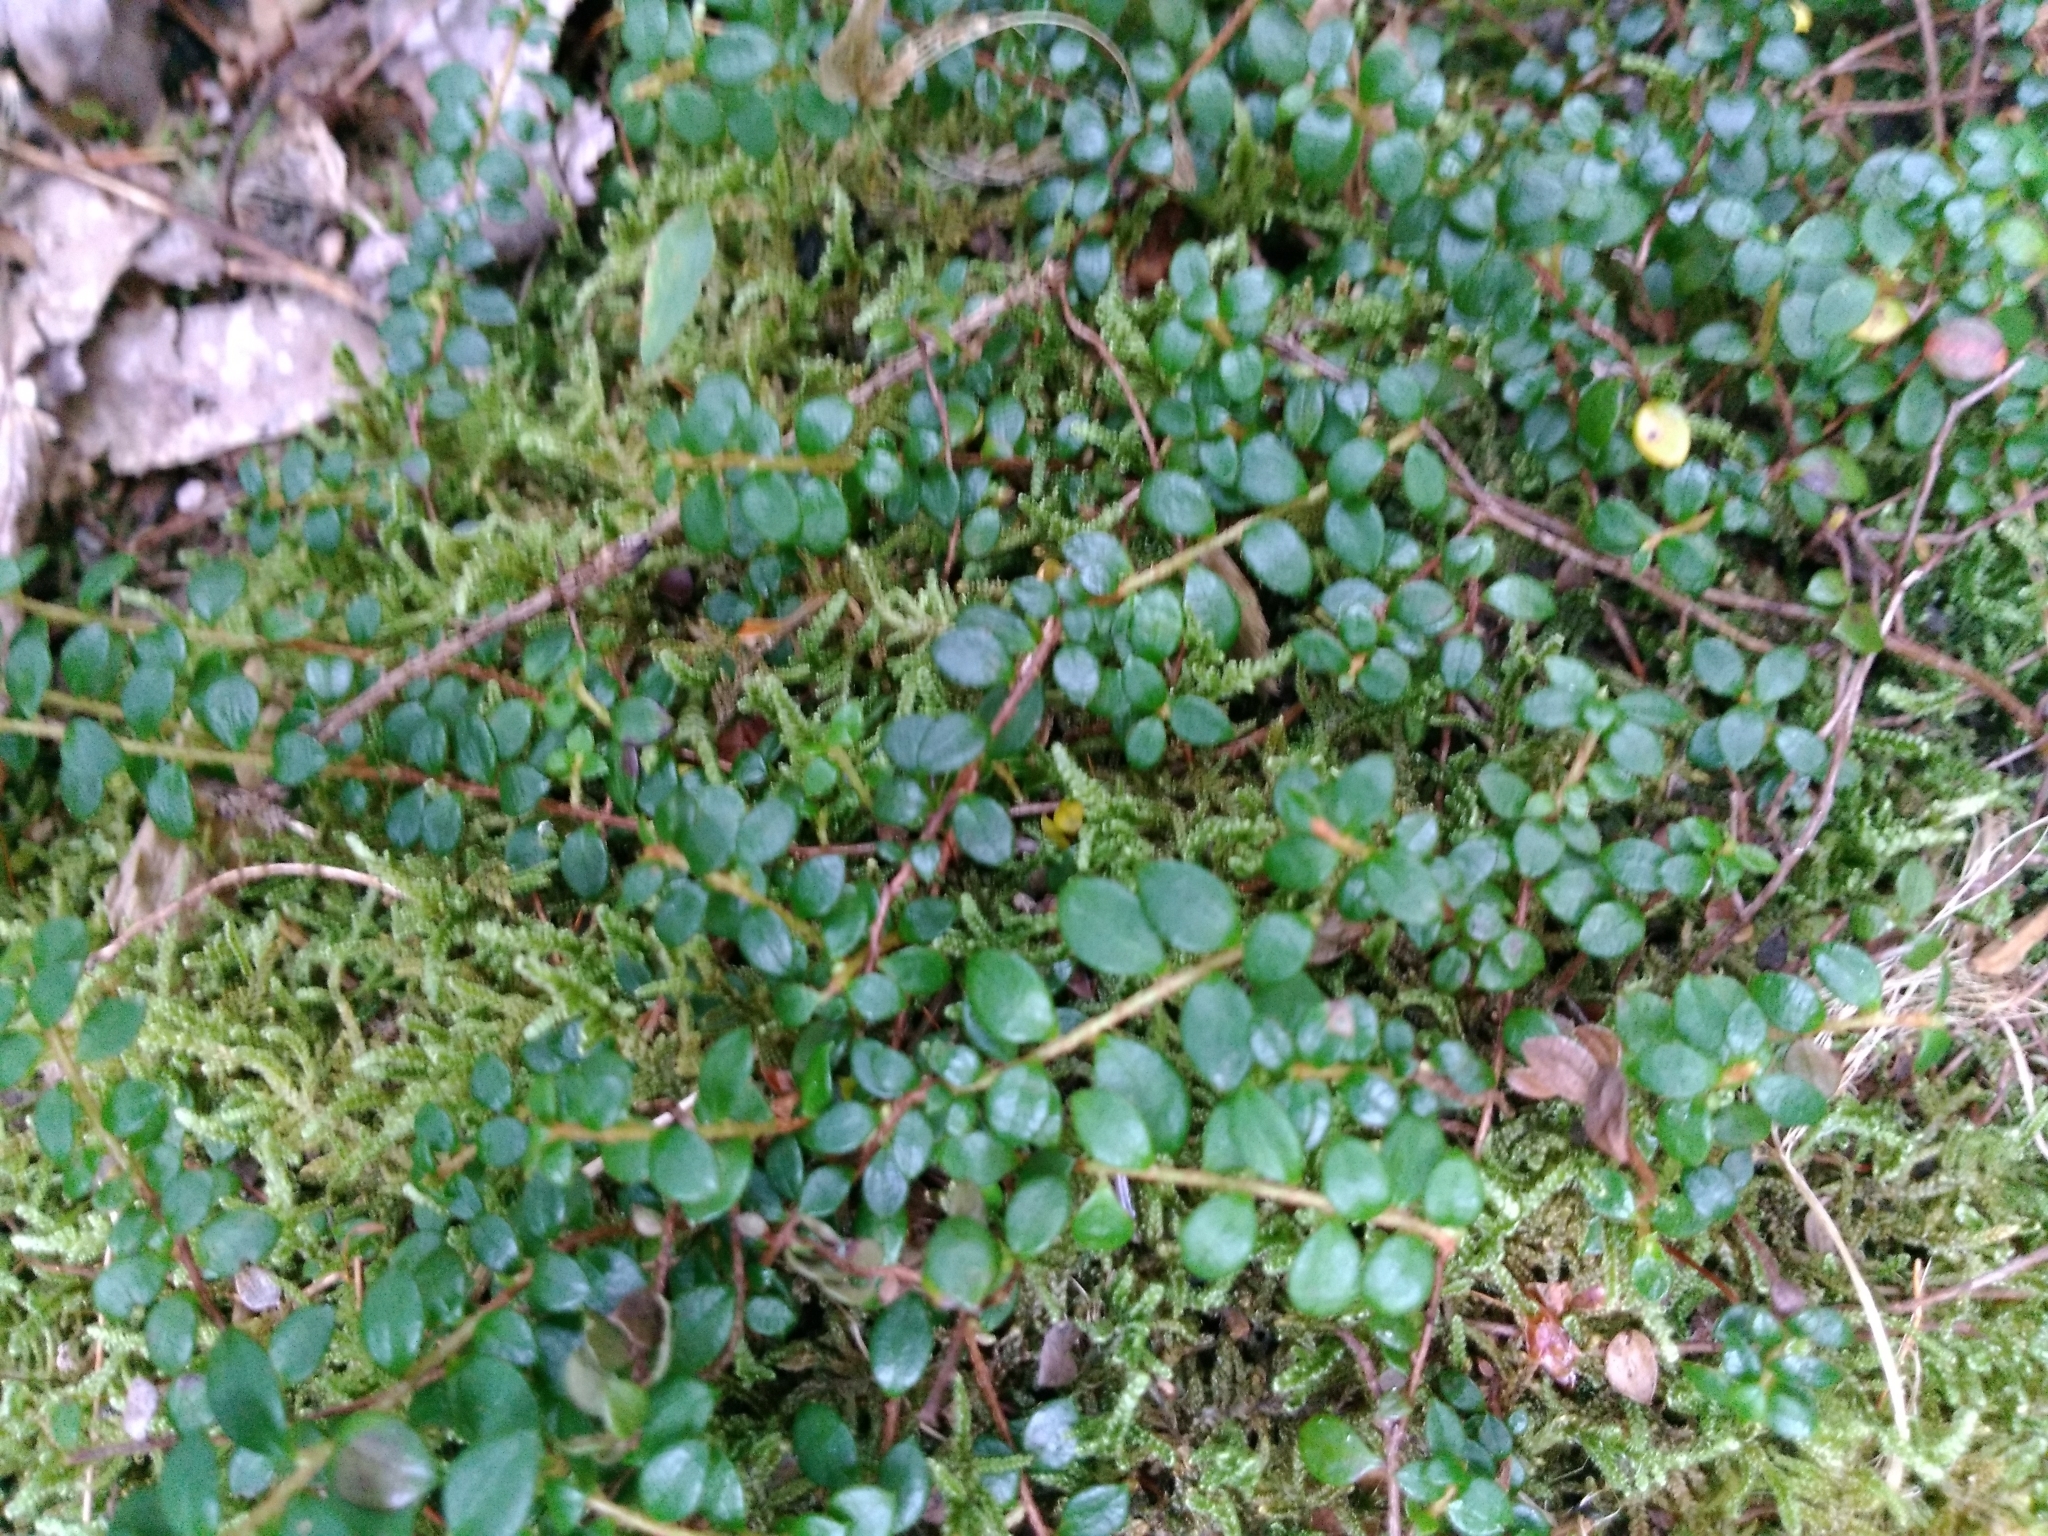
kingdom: Plantae
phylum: Tracheophyta
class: Magnoliopsida
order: Ericales
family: Ericaceae
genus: Gaultheria
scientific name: Gaultheria hispidula
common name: Cancer wintergreen
